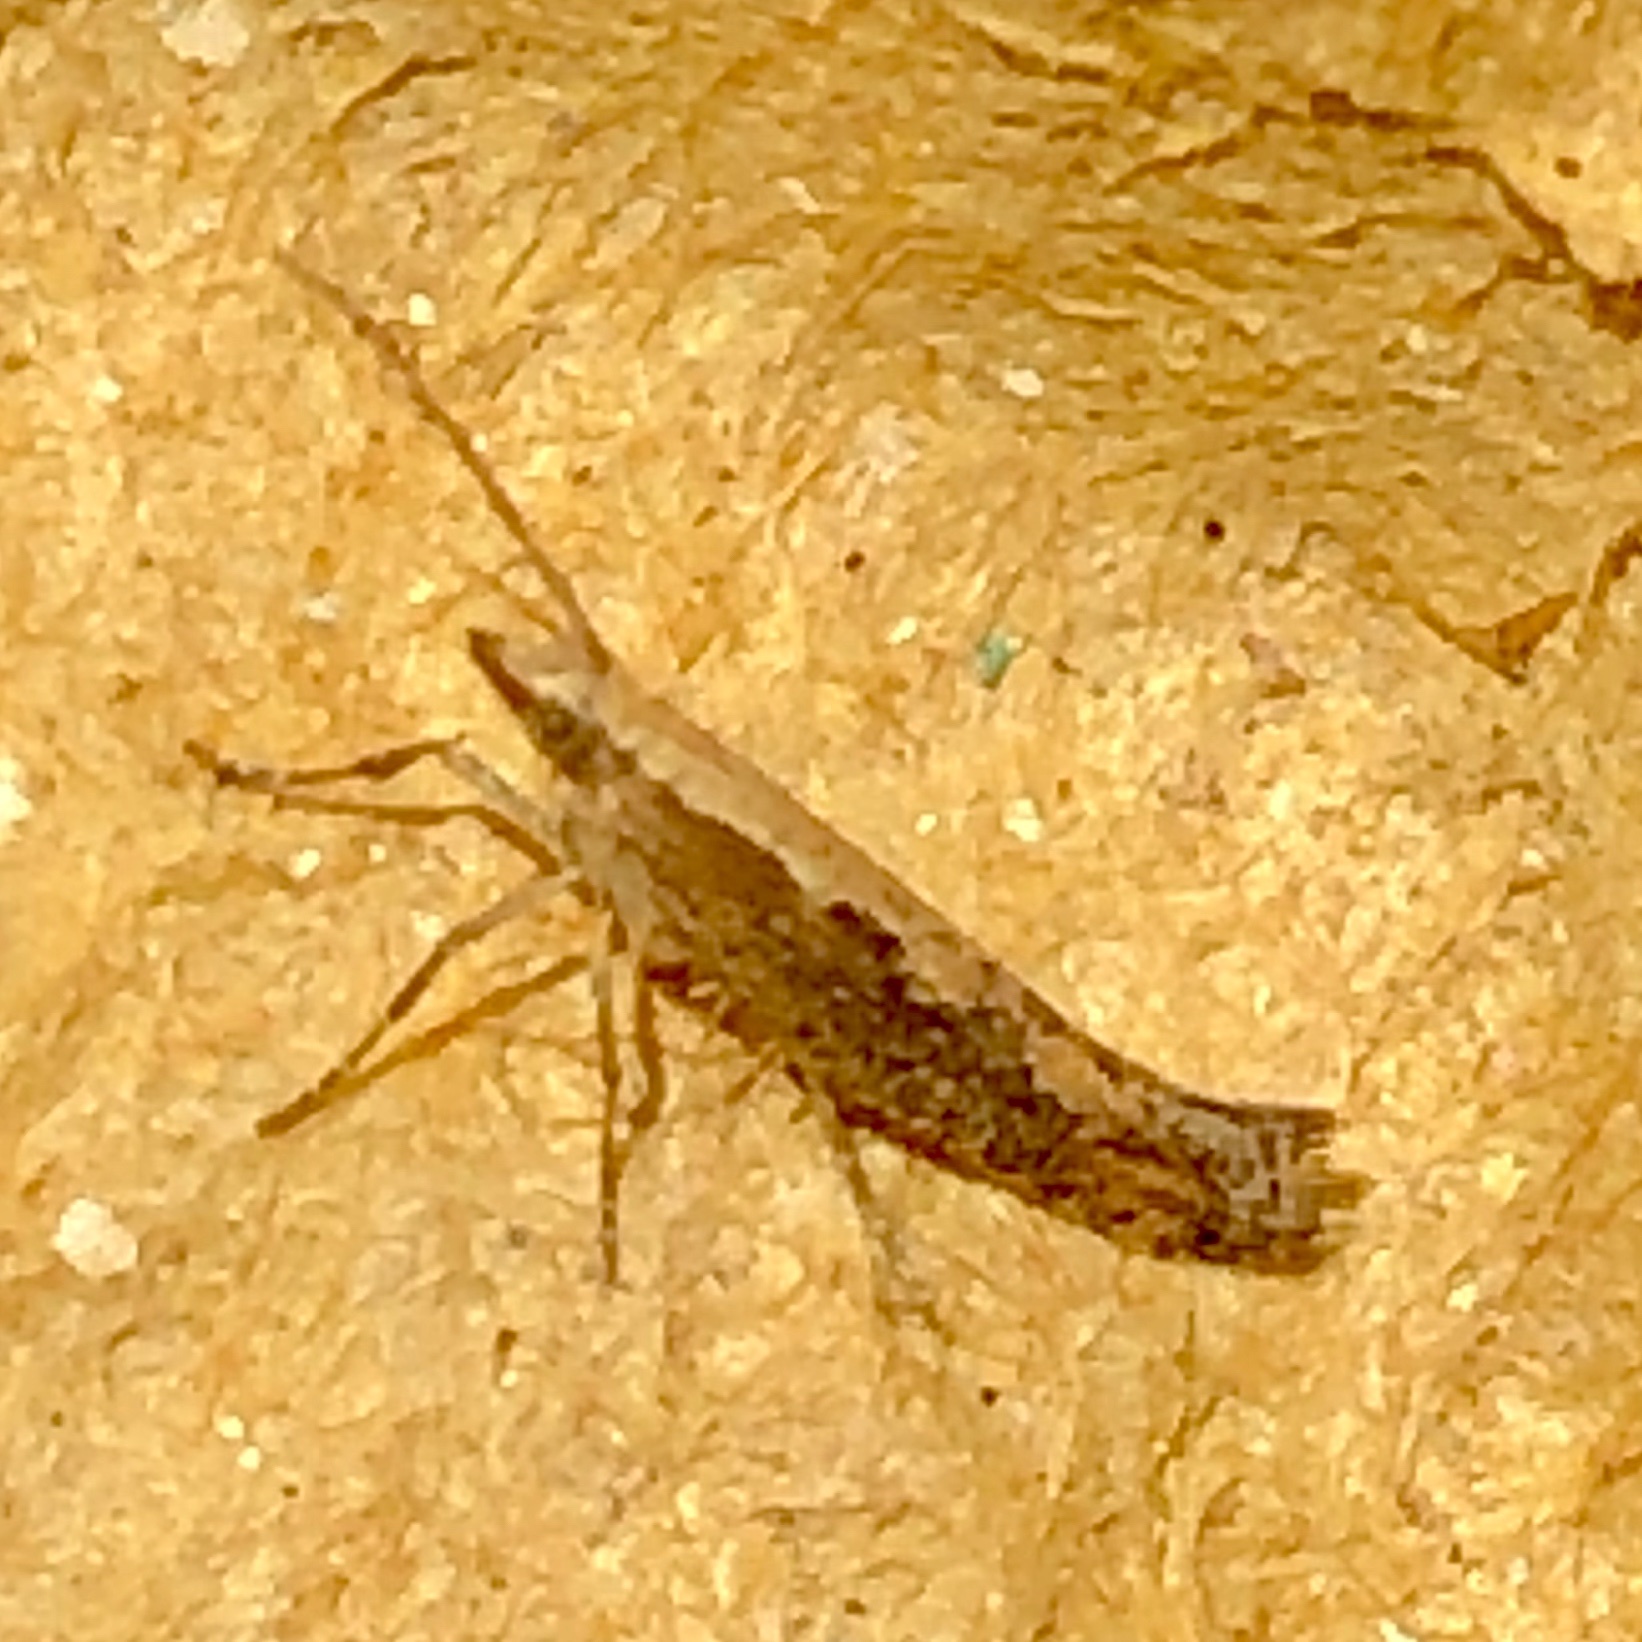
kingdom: Animalia
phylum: Arthropoda
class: Insecta
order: Lepidoptera
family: Plutellidae
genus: Plutella
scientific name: Plutella xylostella
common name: Diamond-back moth
